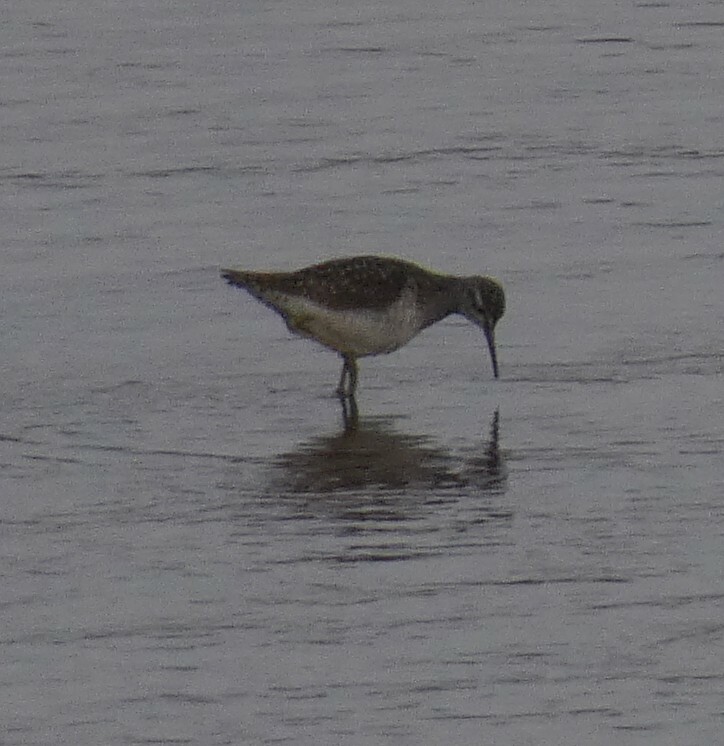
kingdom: Animalia
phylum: Chordata
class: Aves
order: Charadriiformes
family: Scolopacidae
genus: Tringa
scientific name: Tringa glareola
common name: Wood sandpiper
